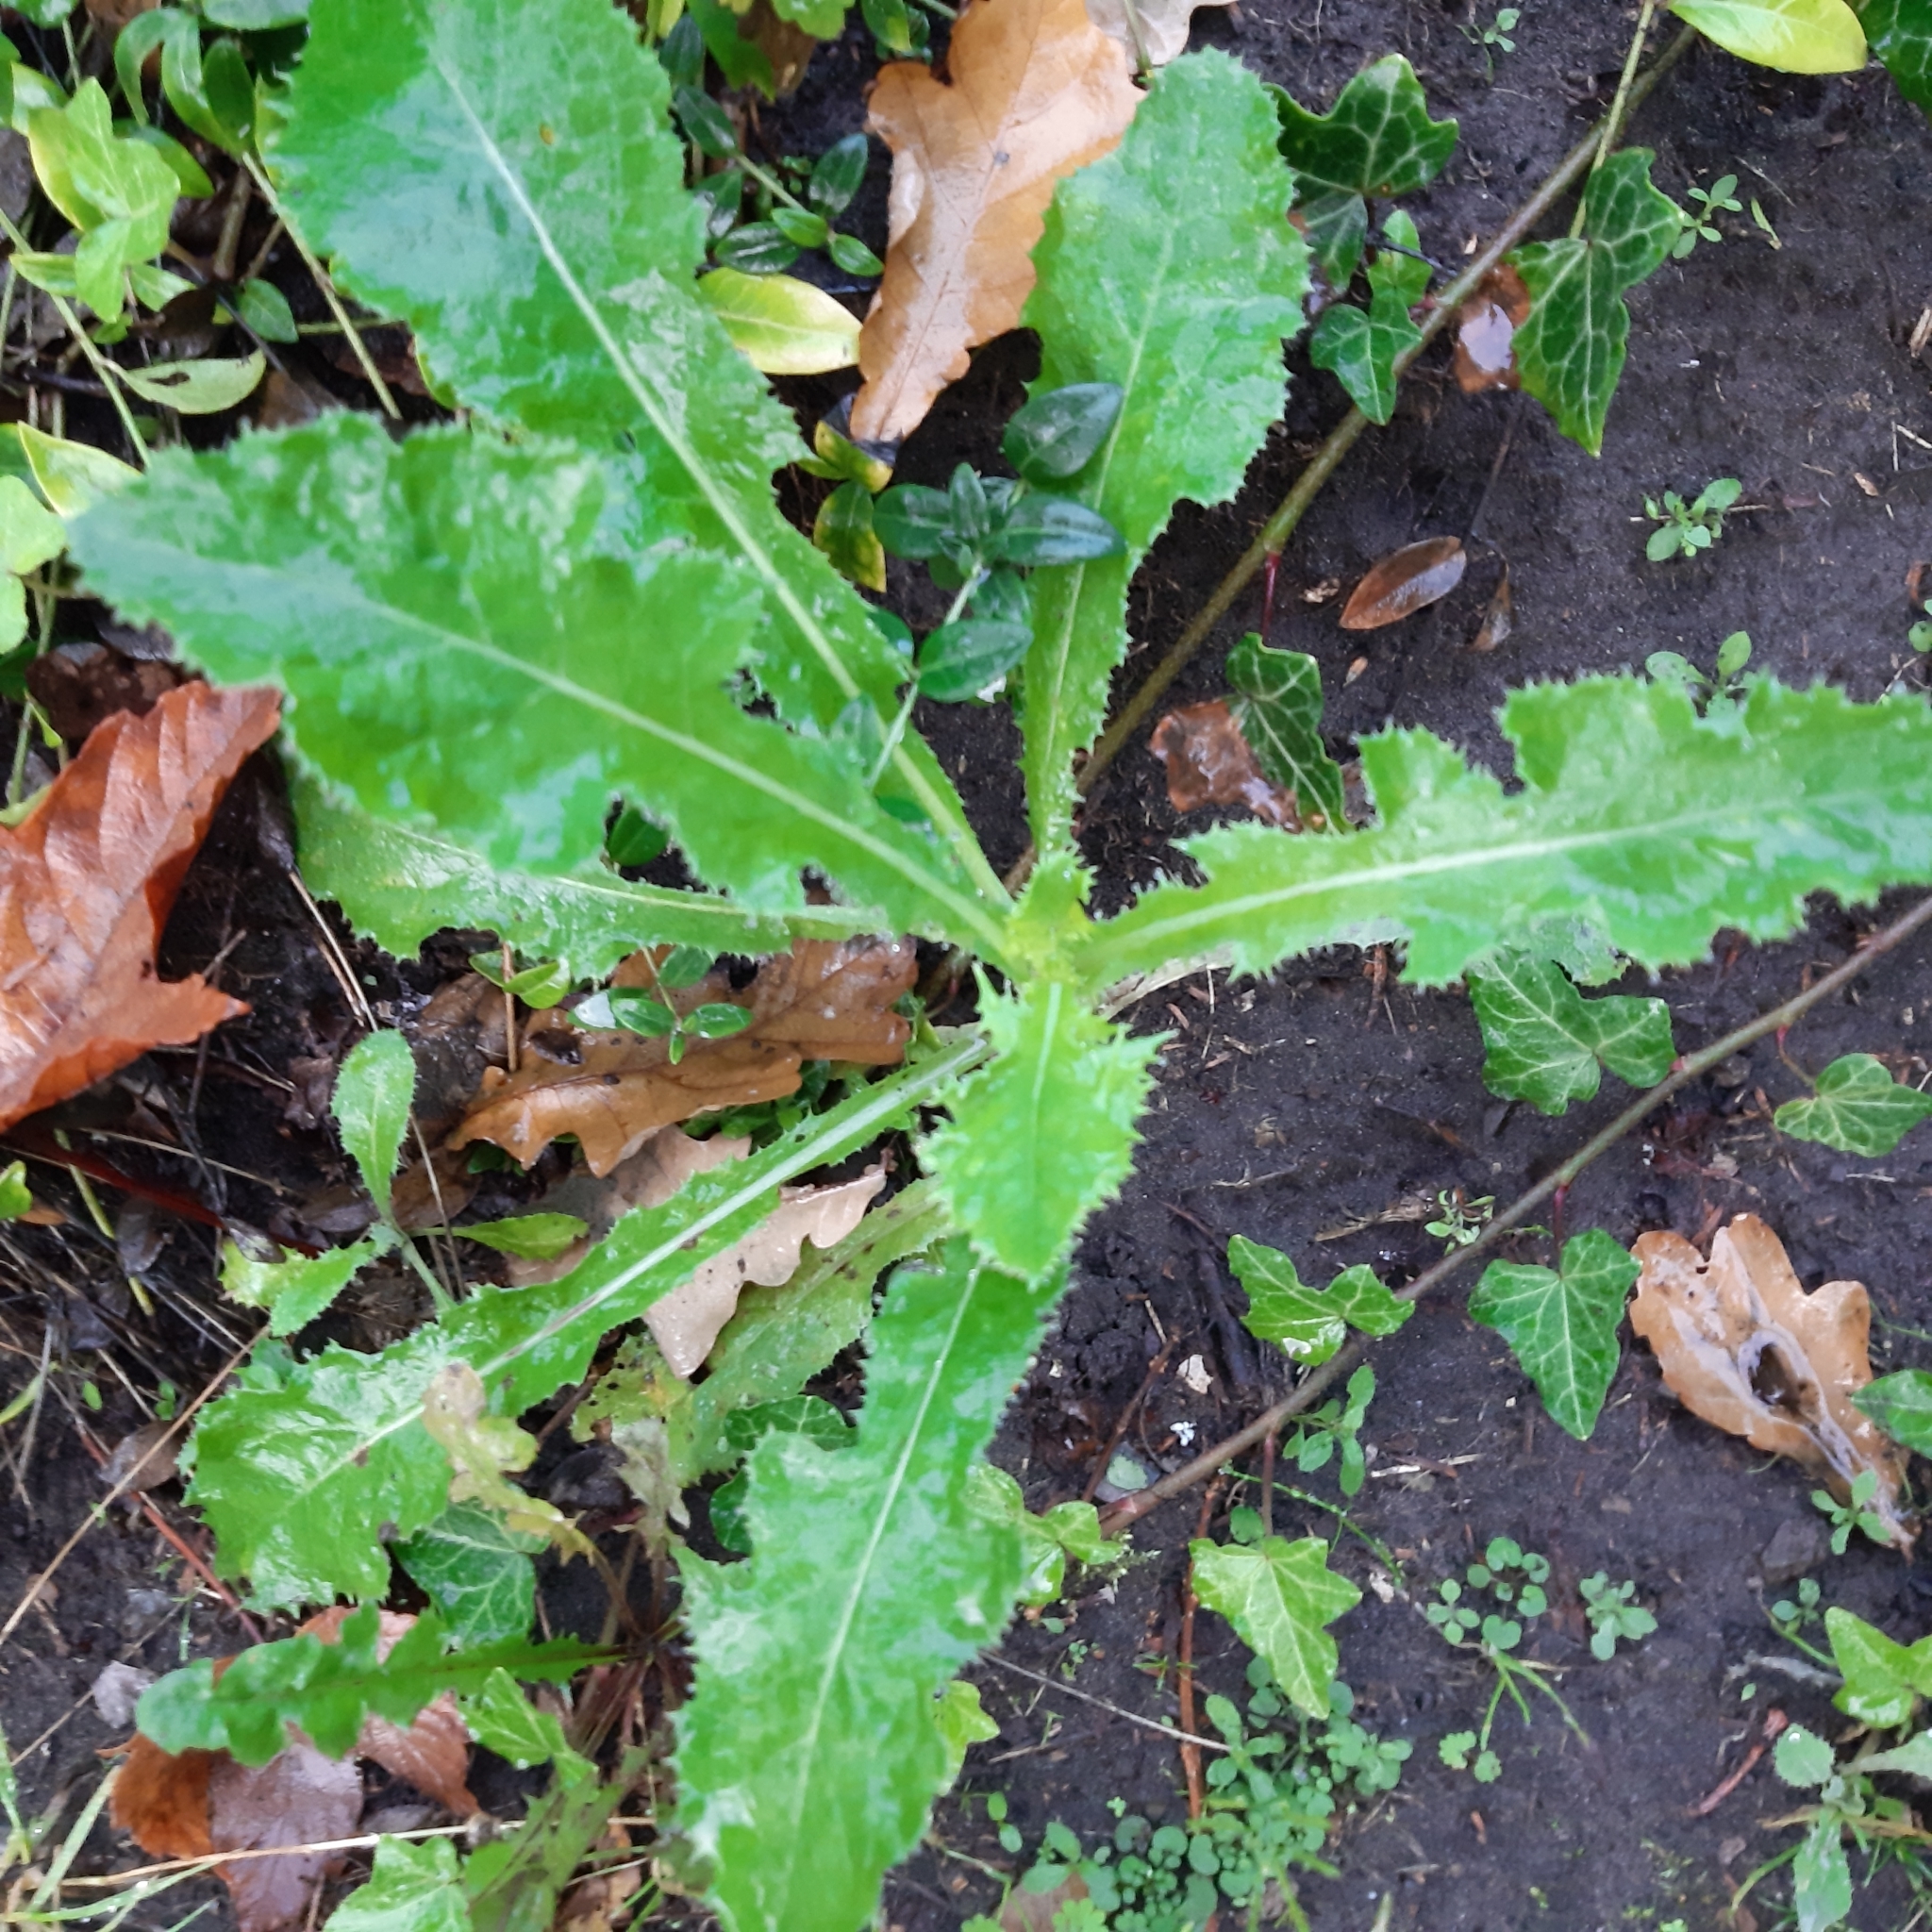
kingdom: Plantae
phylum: Tracheophyta
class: Magnoliopsida
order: Asterales
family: Asteraceae
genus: Sonchus
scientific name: Sonchus asper
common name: Prickly sow-thistle
